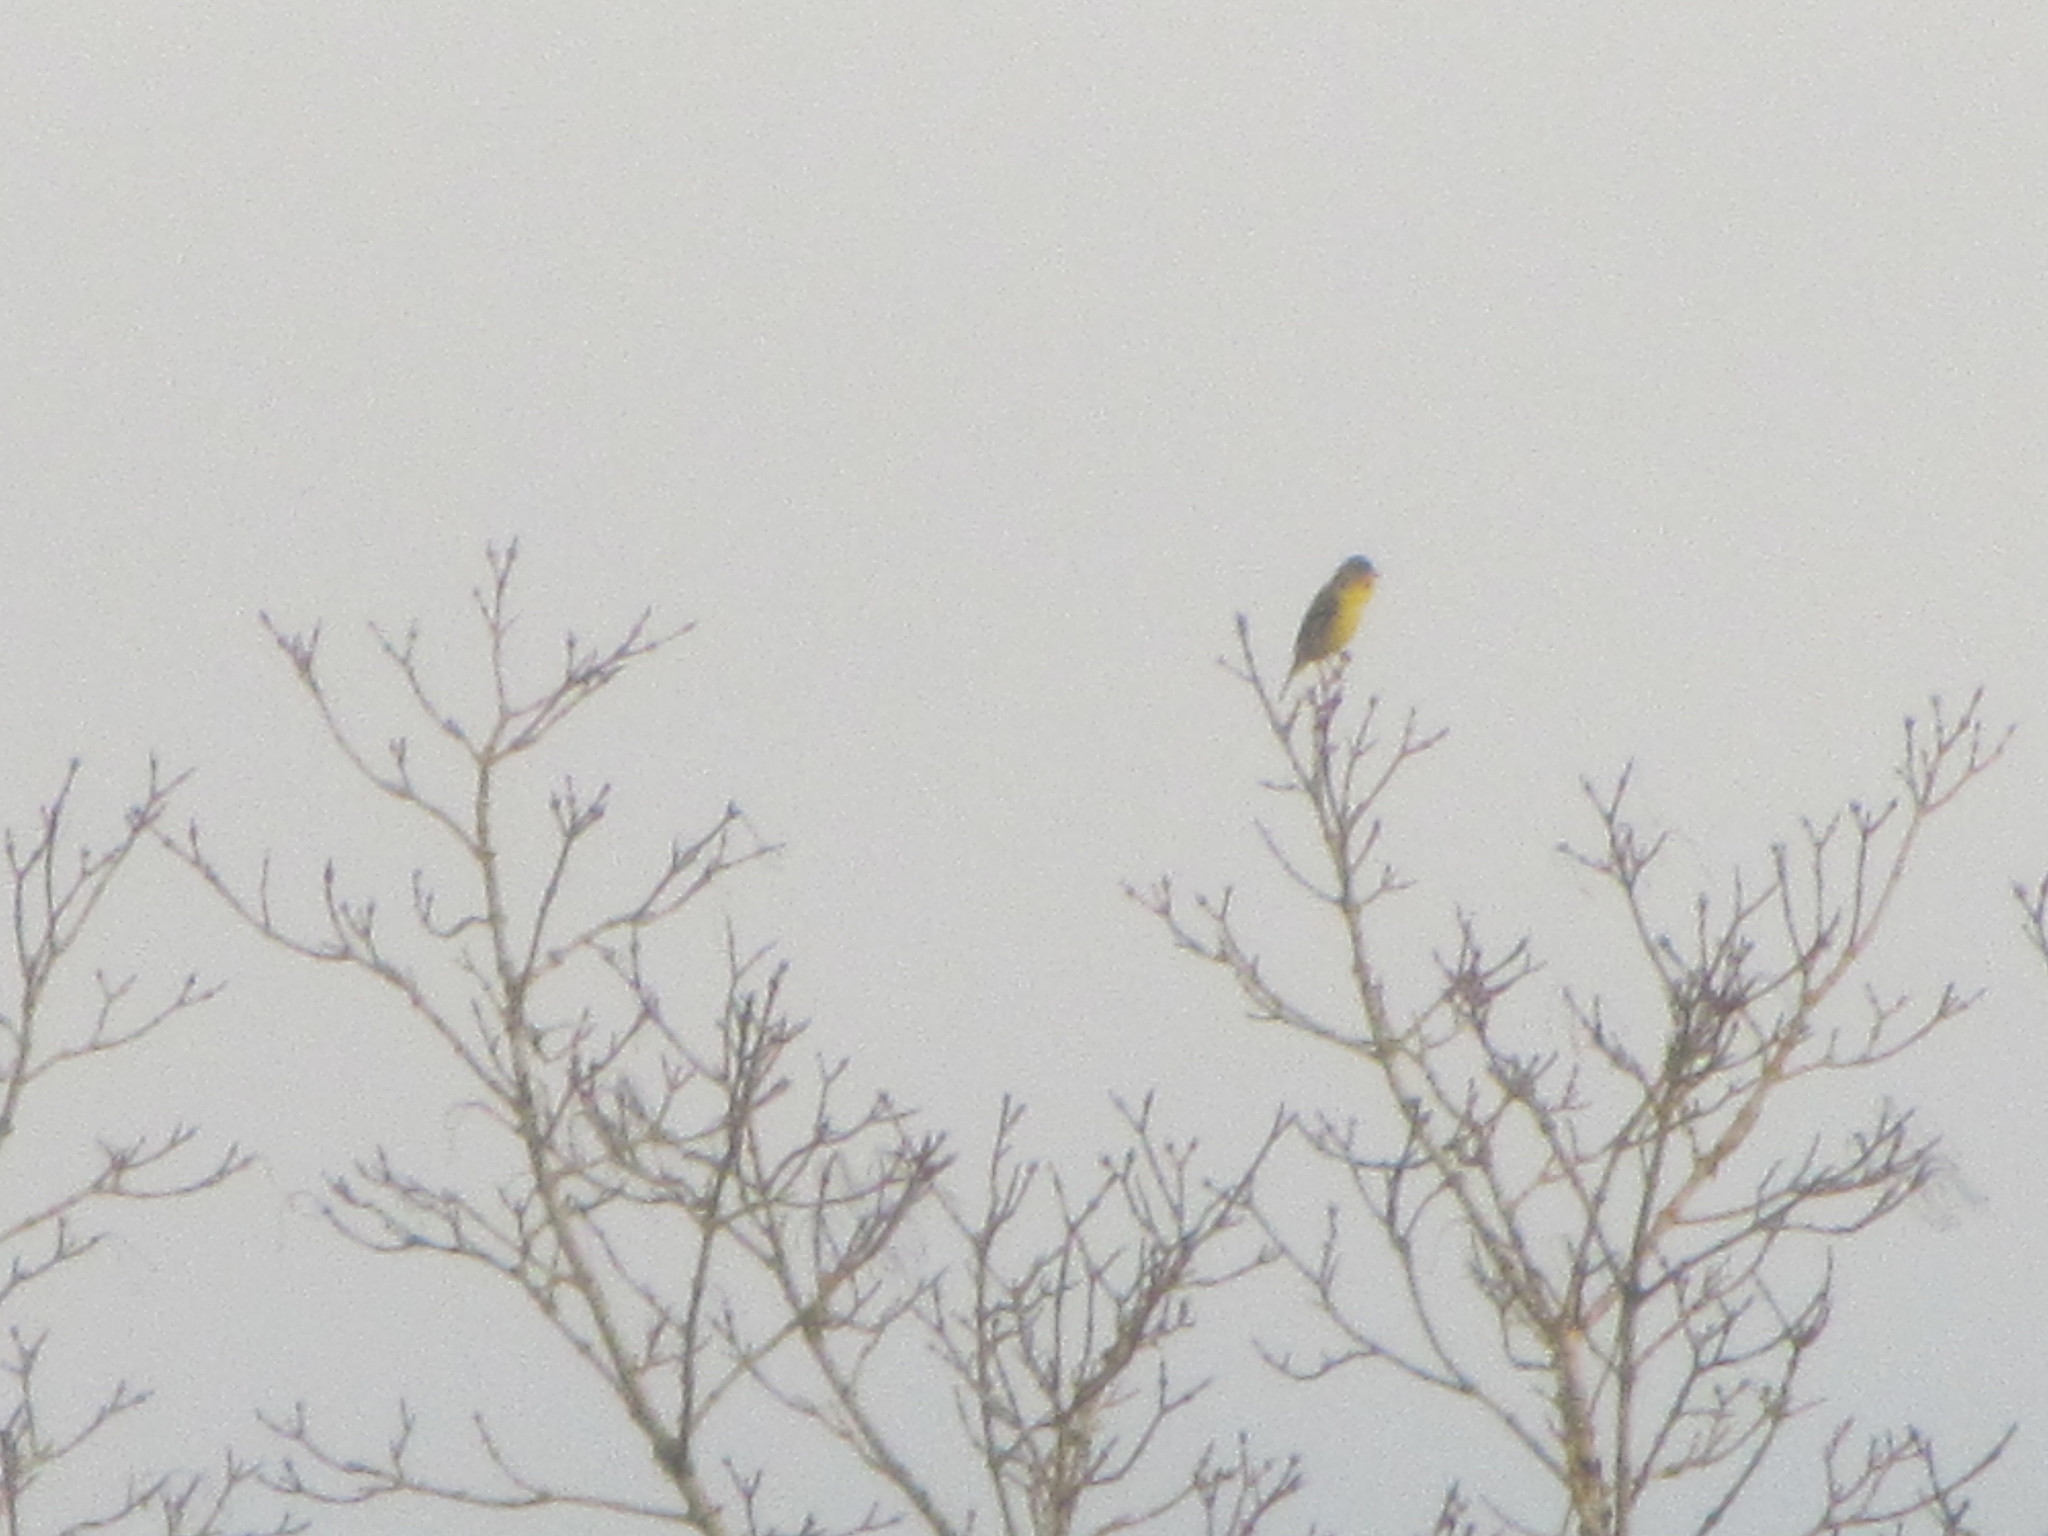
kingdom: Animalia
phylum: Chordata
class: Aves
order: Passeriformes
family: Fringillidae
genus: Spinus
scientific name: Spinus psaltria
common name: Lesser goldfinch
